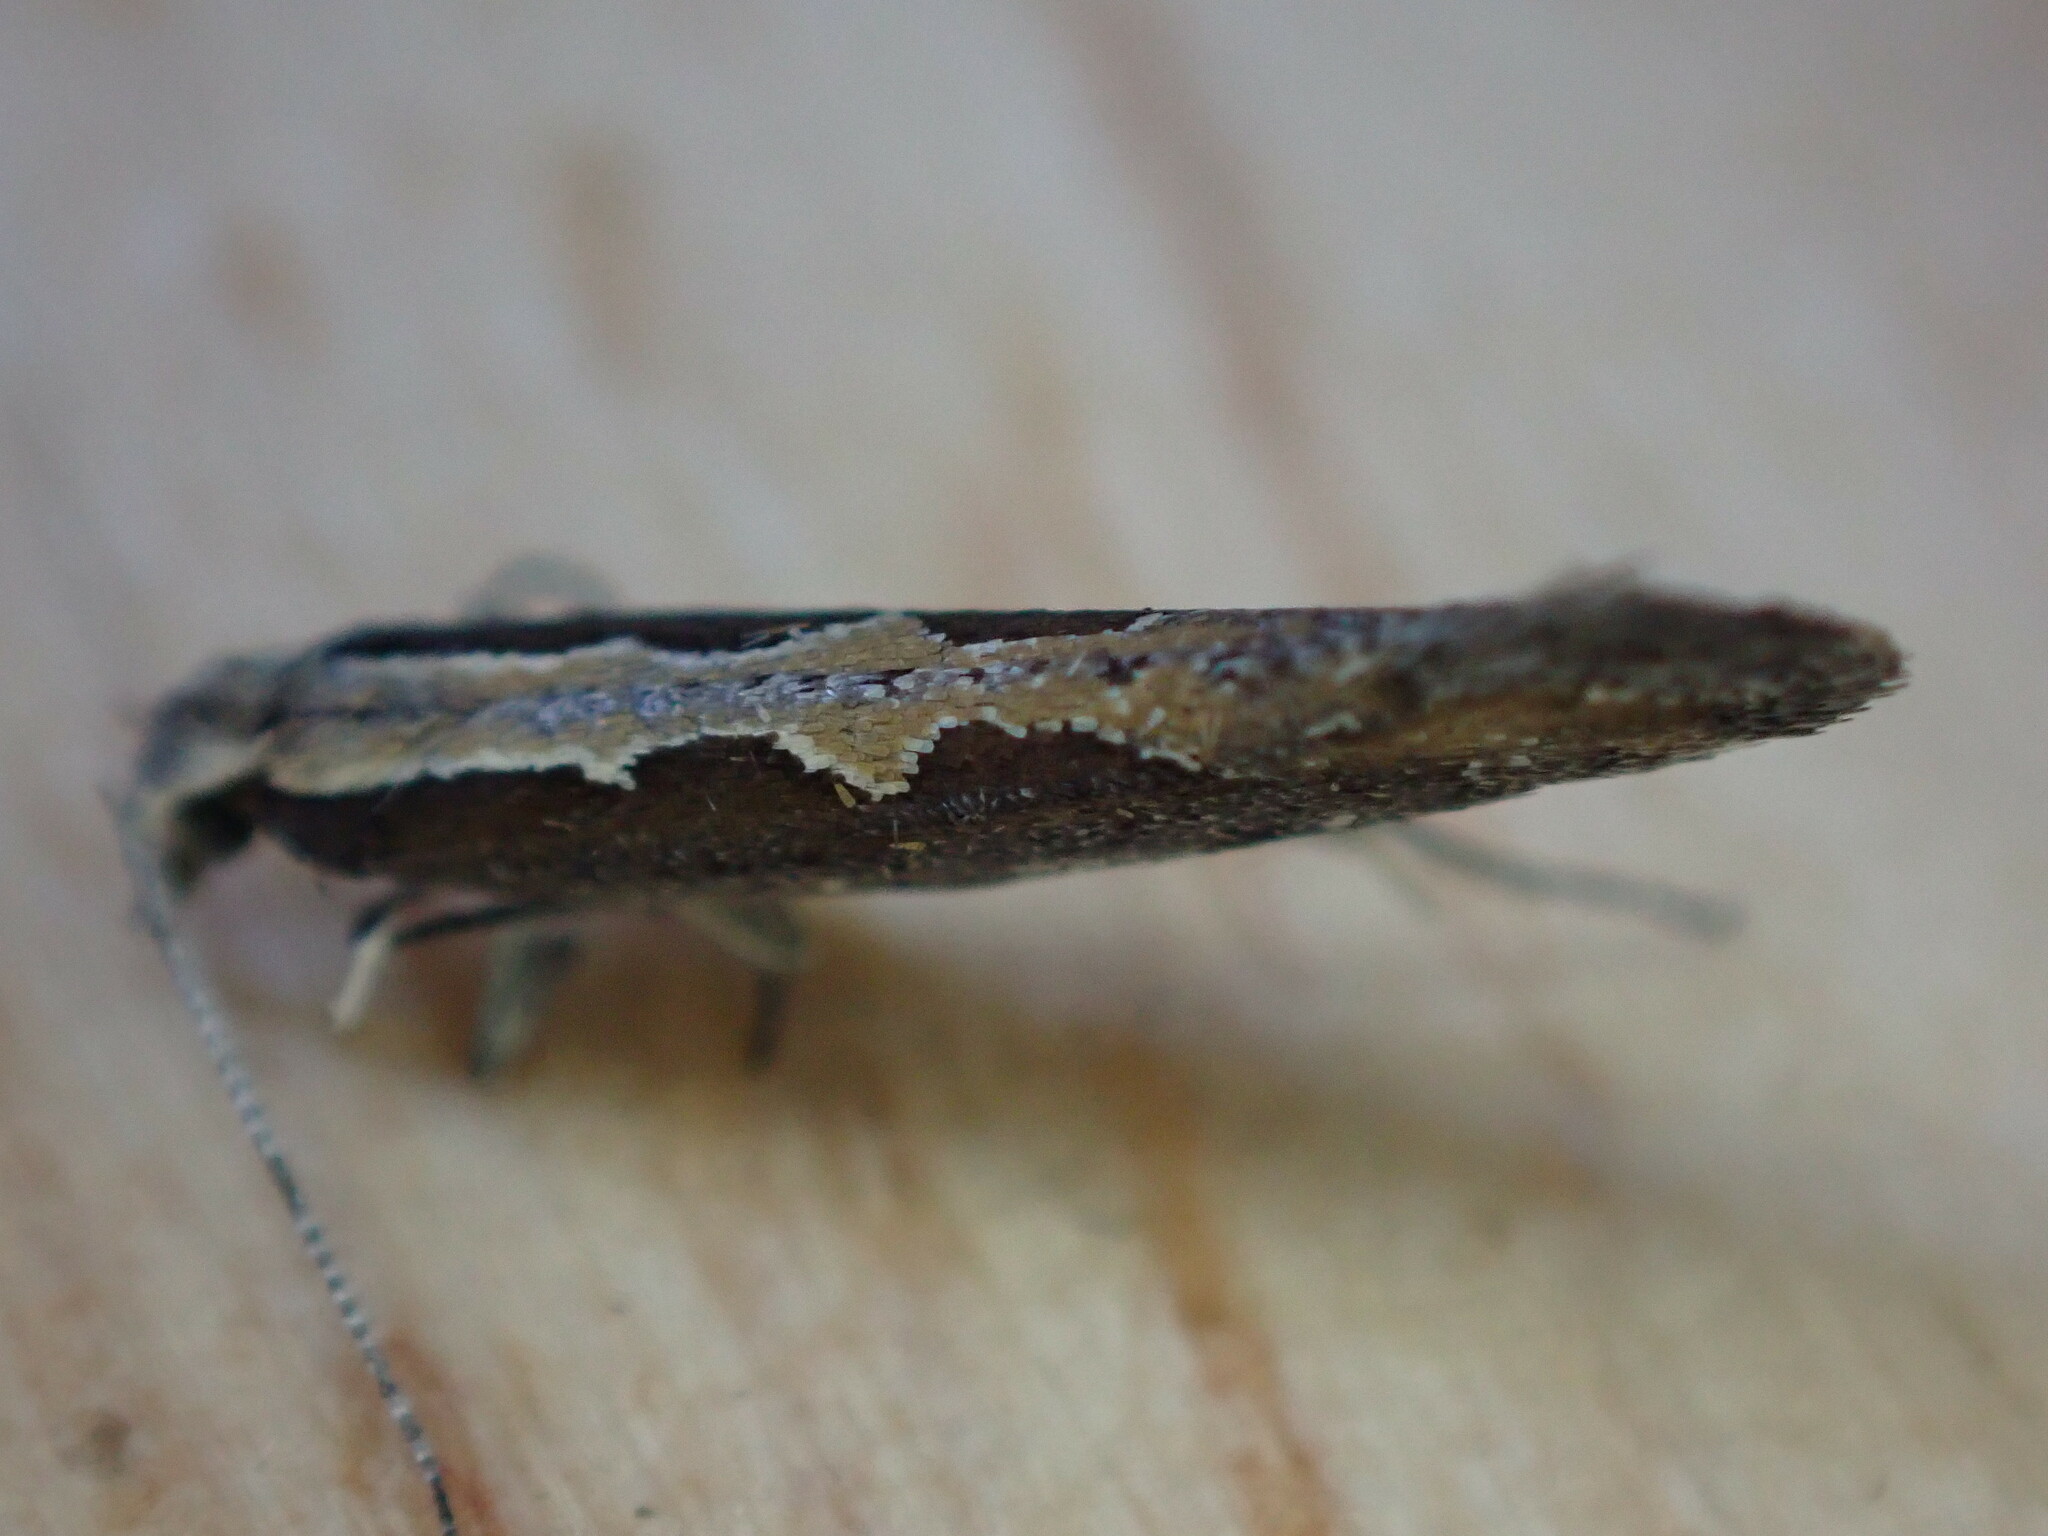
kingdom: Animalia
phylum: Arthropoda
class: Insecta
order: Lepidoptera
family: Plutellidae
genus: Plutella
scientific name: Plutella xylostella
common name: Diamond-back moth
